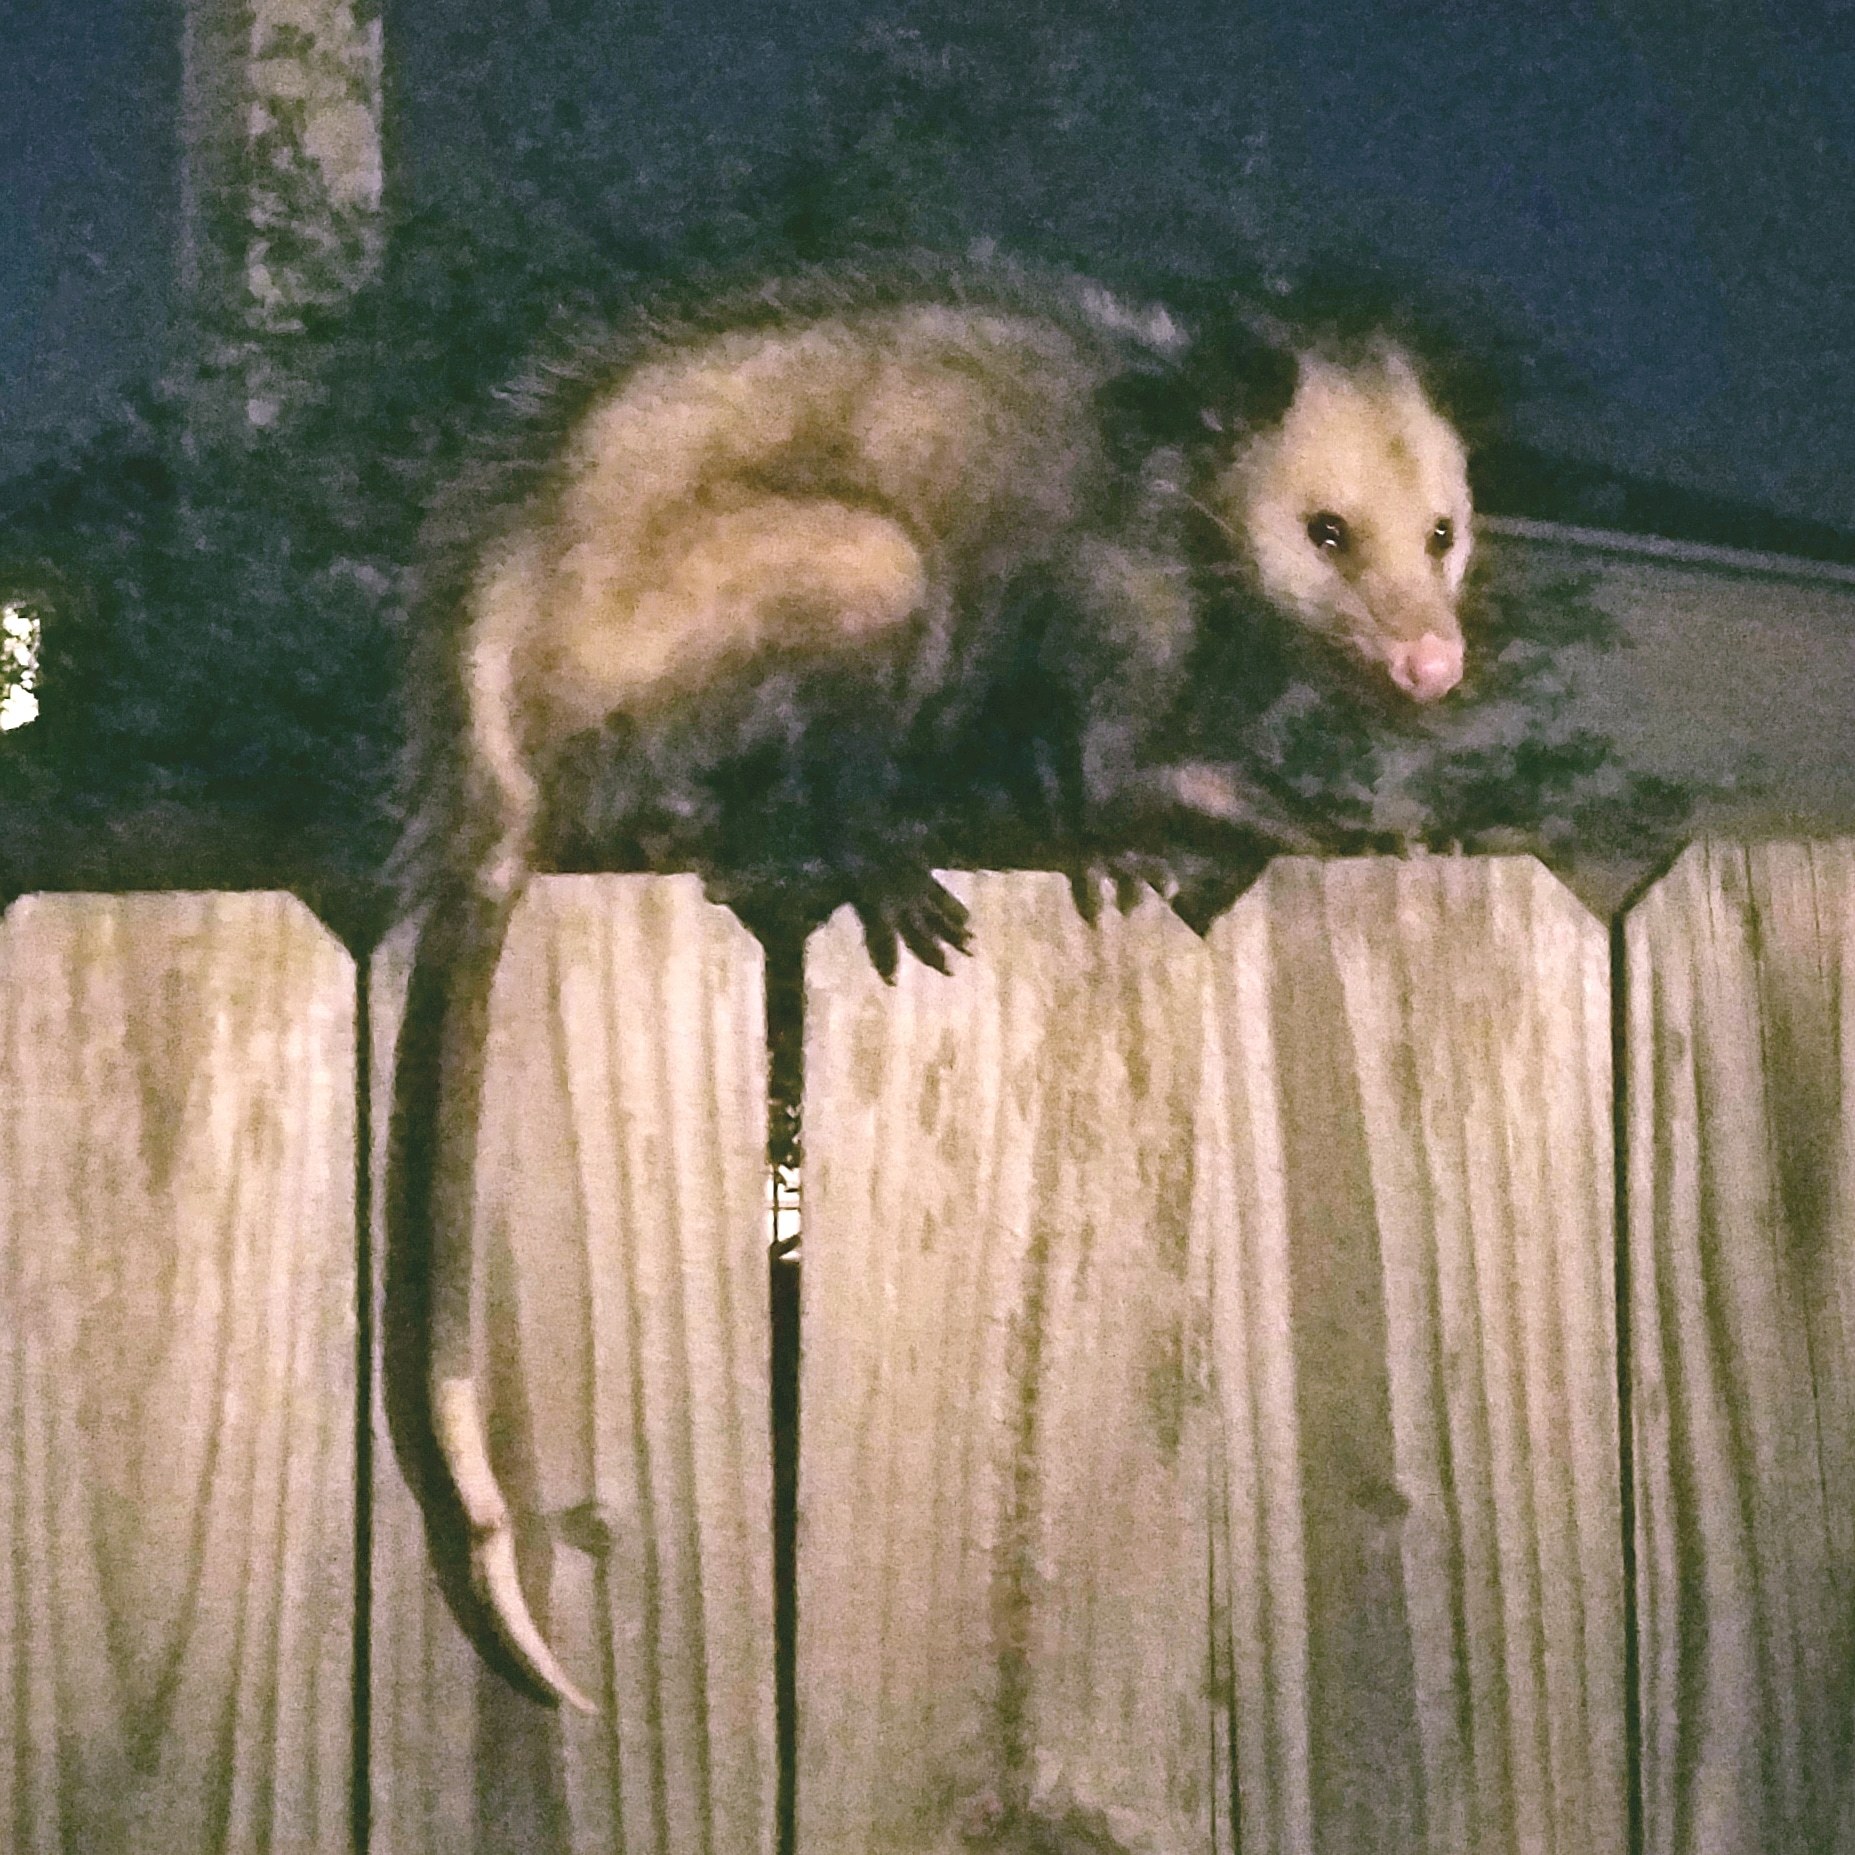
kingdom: Animalia
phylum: Chordata
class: Mammalia
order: Didelphimorphia
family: Didelphidae
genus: Didelphis
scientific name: Didelphis virginiana
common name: Virginia opossum
